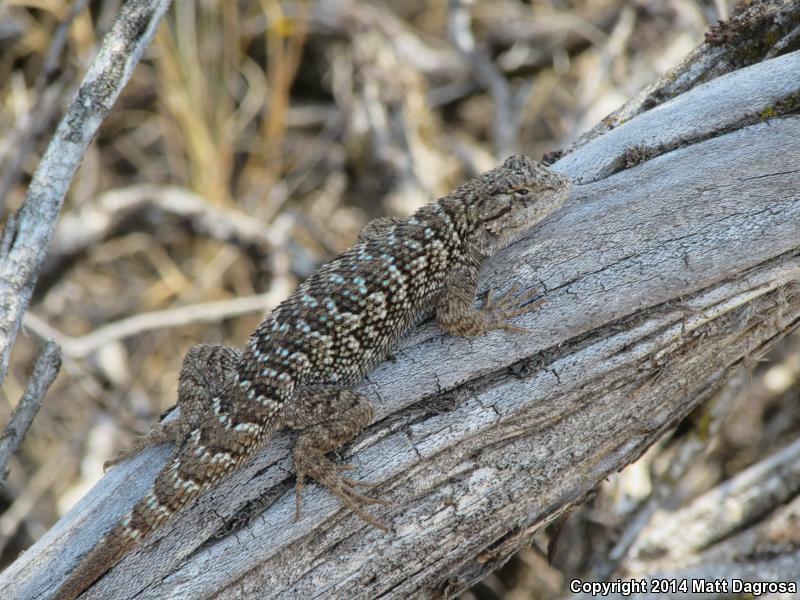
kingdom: Animalia
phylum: Chordata
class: Squamata
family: Phrynosomatidae
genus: Sceloporus
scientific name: Sceloporus occidentalis
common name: Western fence lizard
